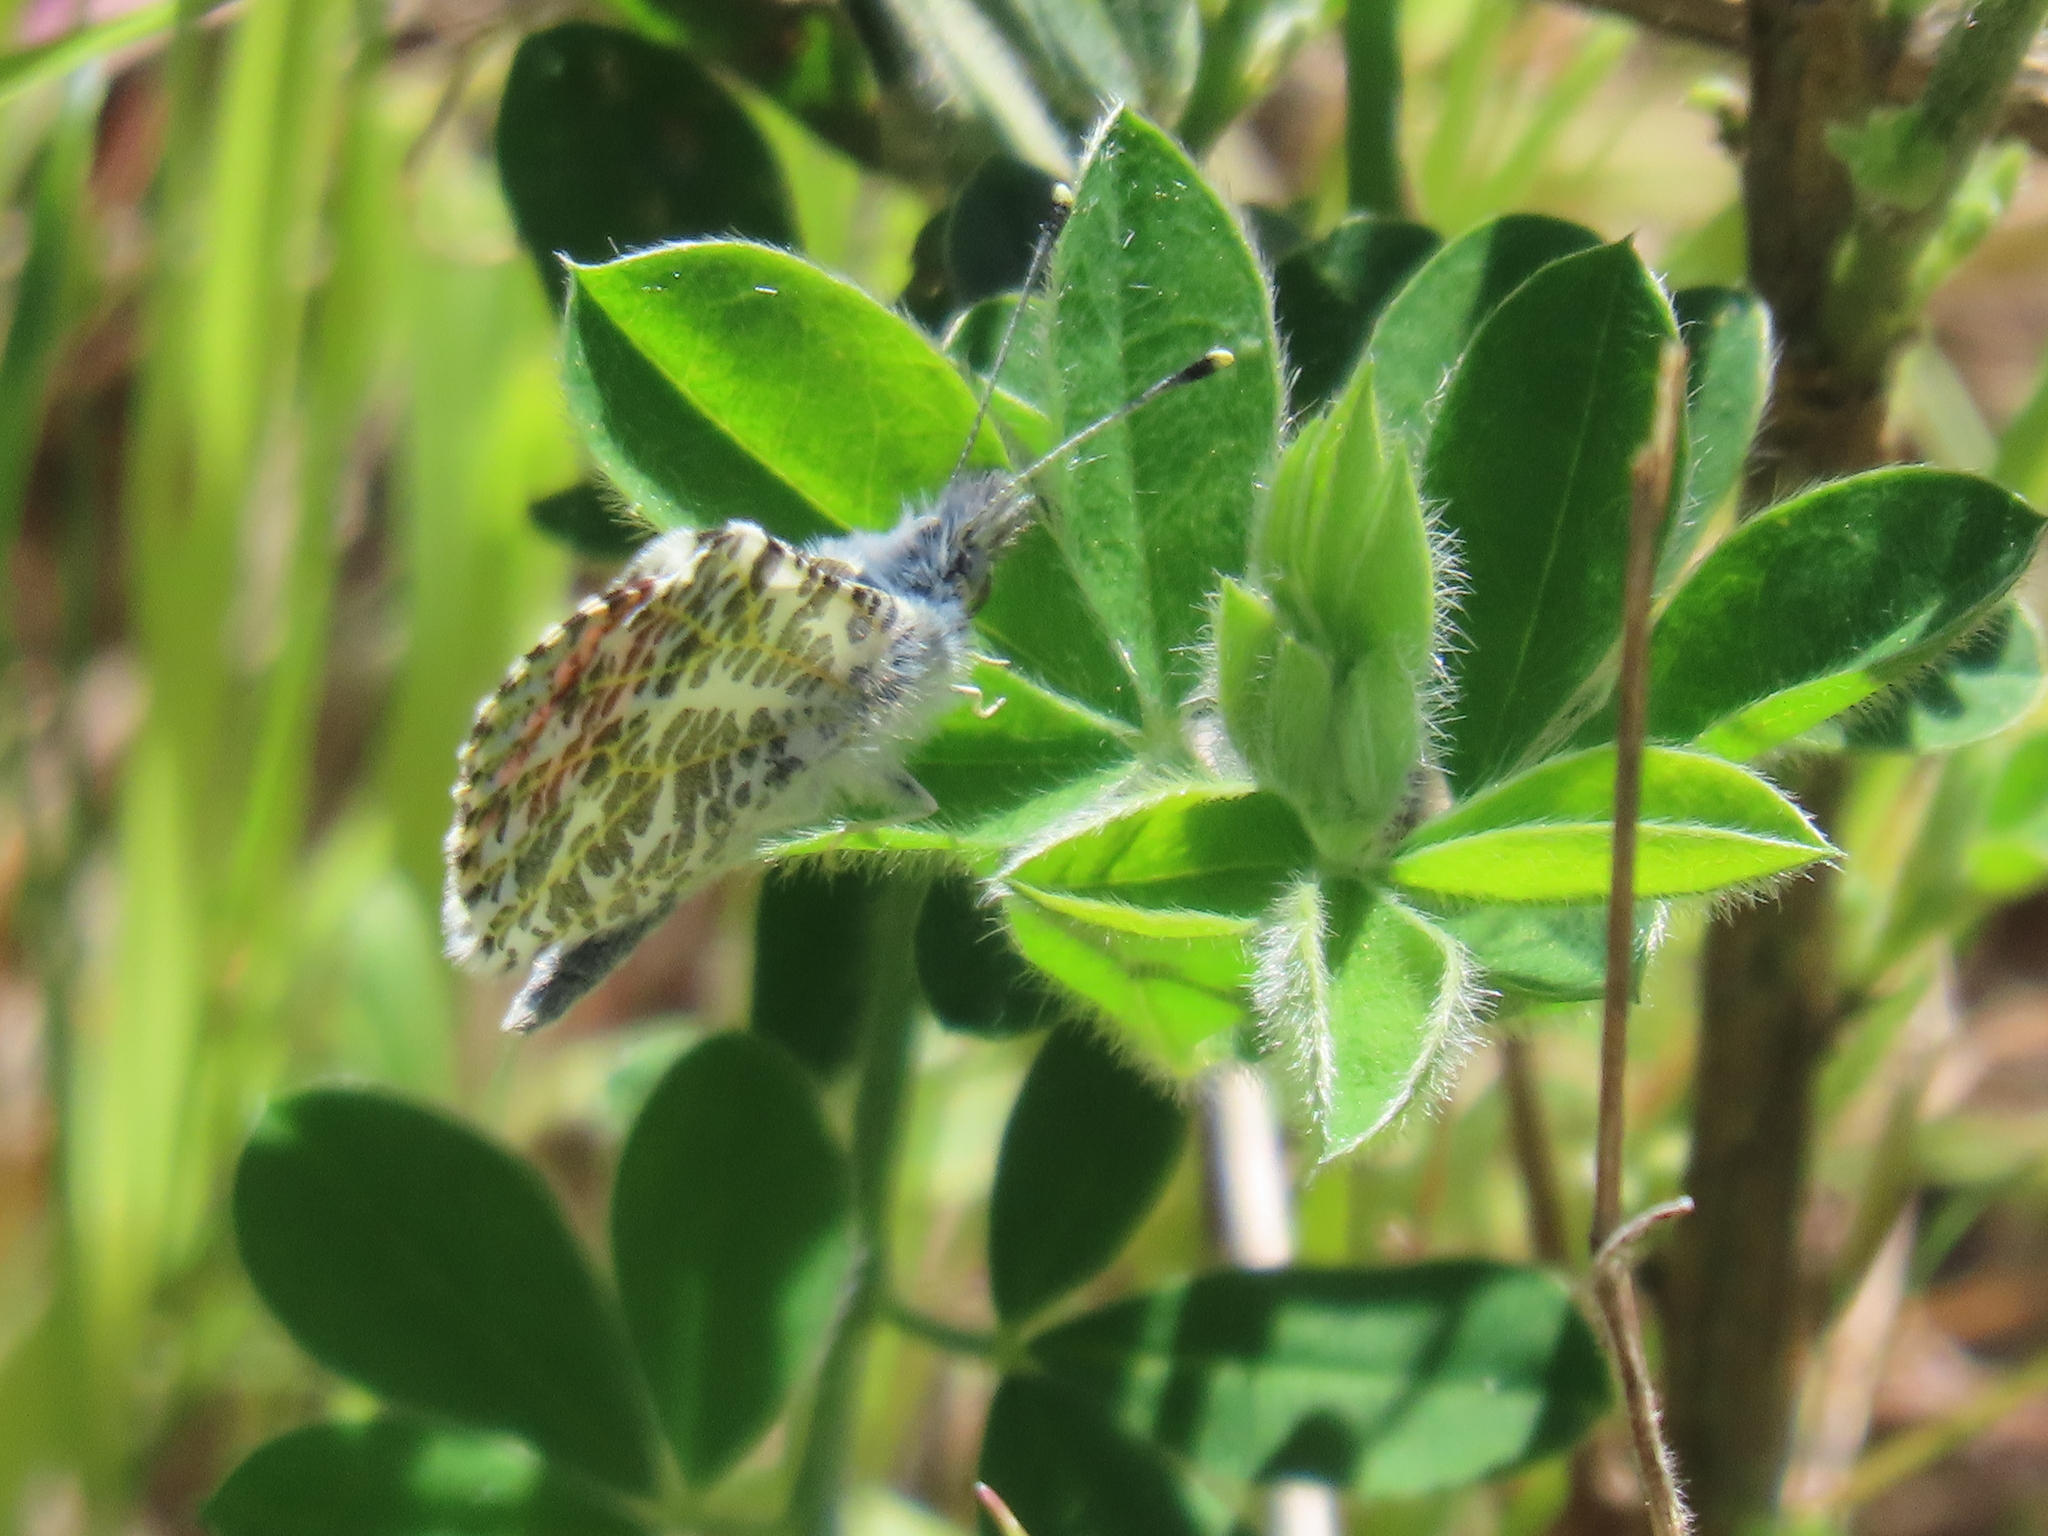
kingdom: Animalia
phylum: Arthropoda
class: Insecta
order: Lepidoptera
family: Pieridae
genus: Anthocharis
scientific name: Anthocharis sara
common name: Sara's orangetip
